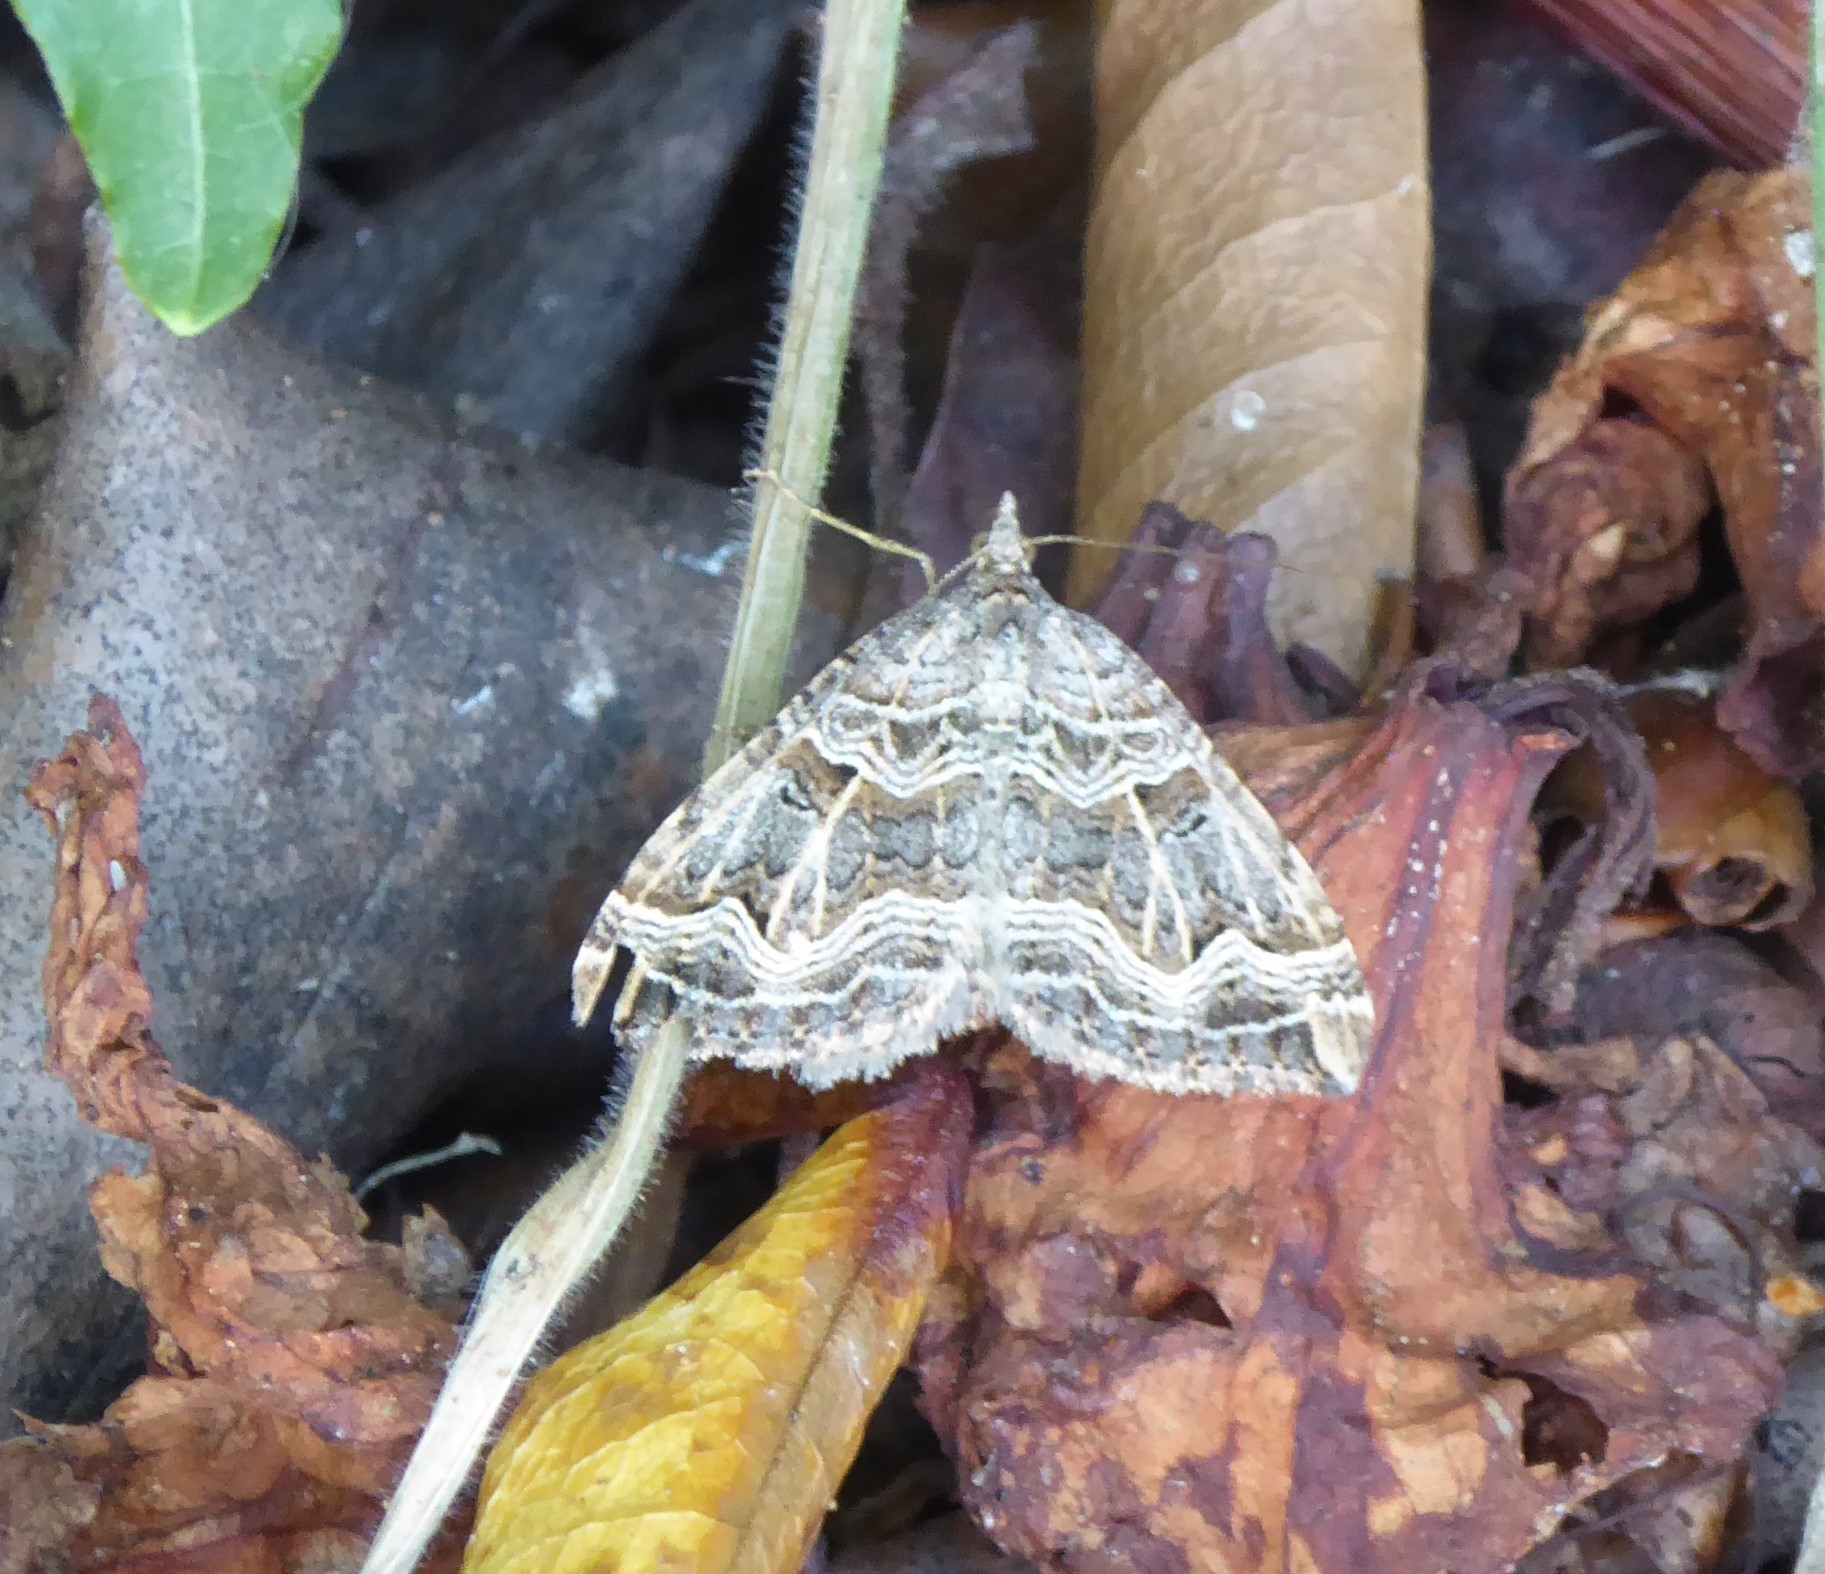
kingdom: Animalia
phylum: Arthropoda
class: Insecta
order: Lepidoptera
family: Geometridae
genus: Xanthorhoe
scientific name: Xanthorhoe semifissata
